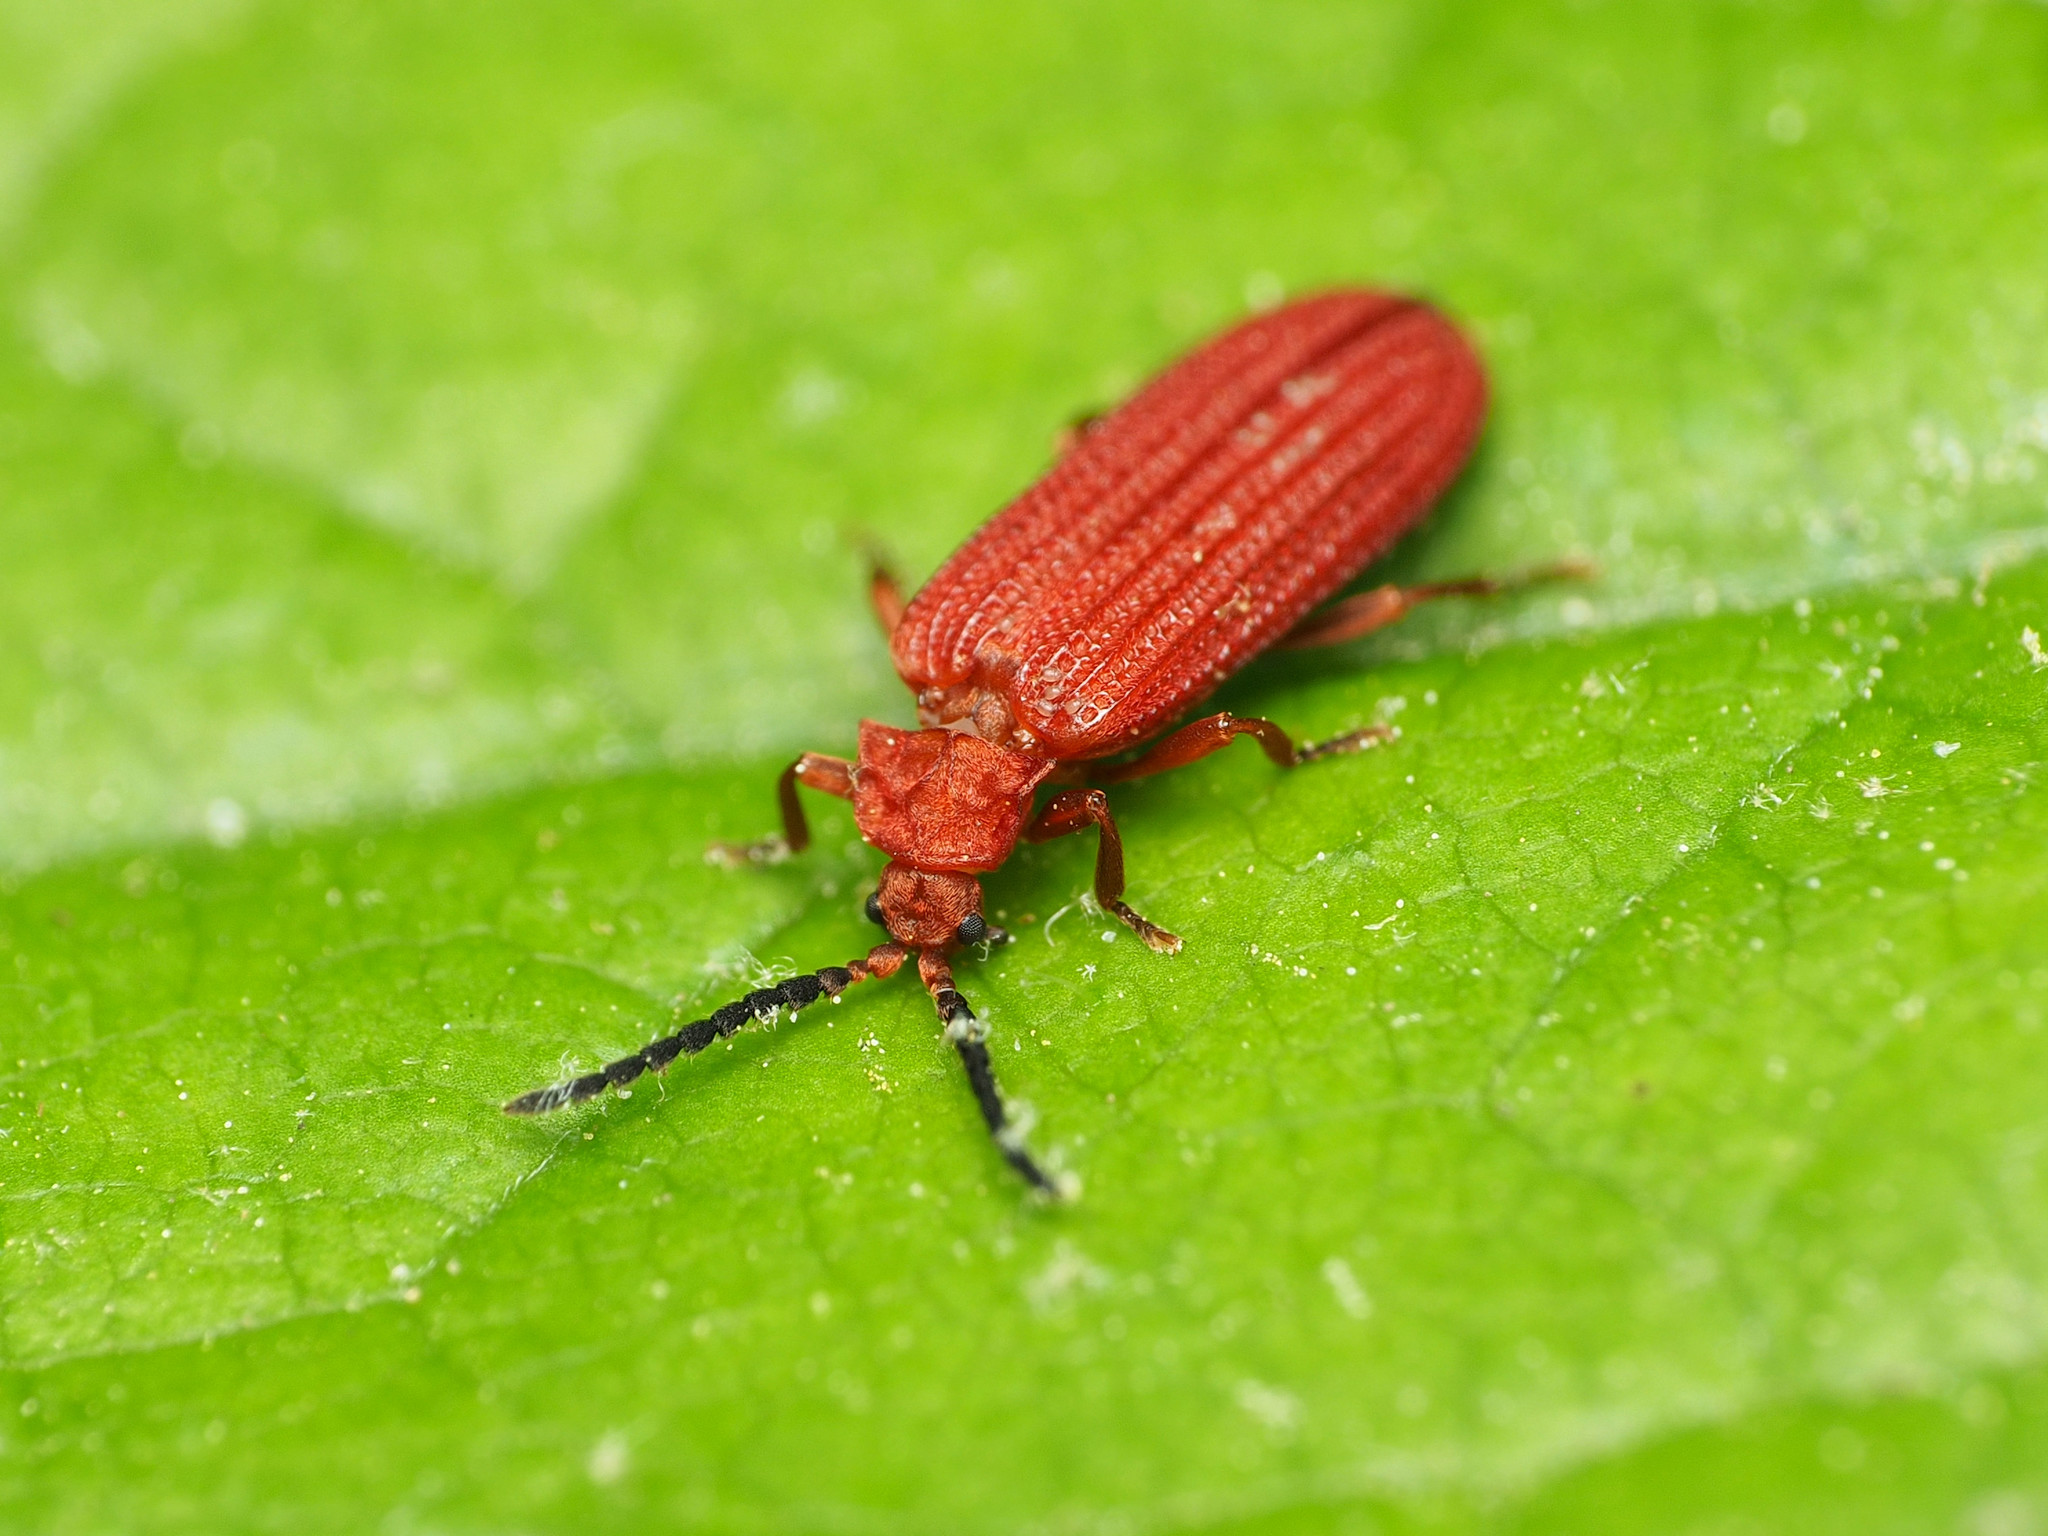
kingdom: Animalia
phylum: Arthropoda
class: Insecta
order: Coleoptera
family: Lycidae
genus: Punicealis
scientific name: Punicealis
